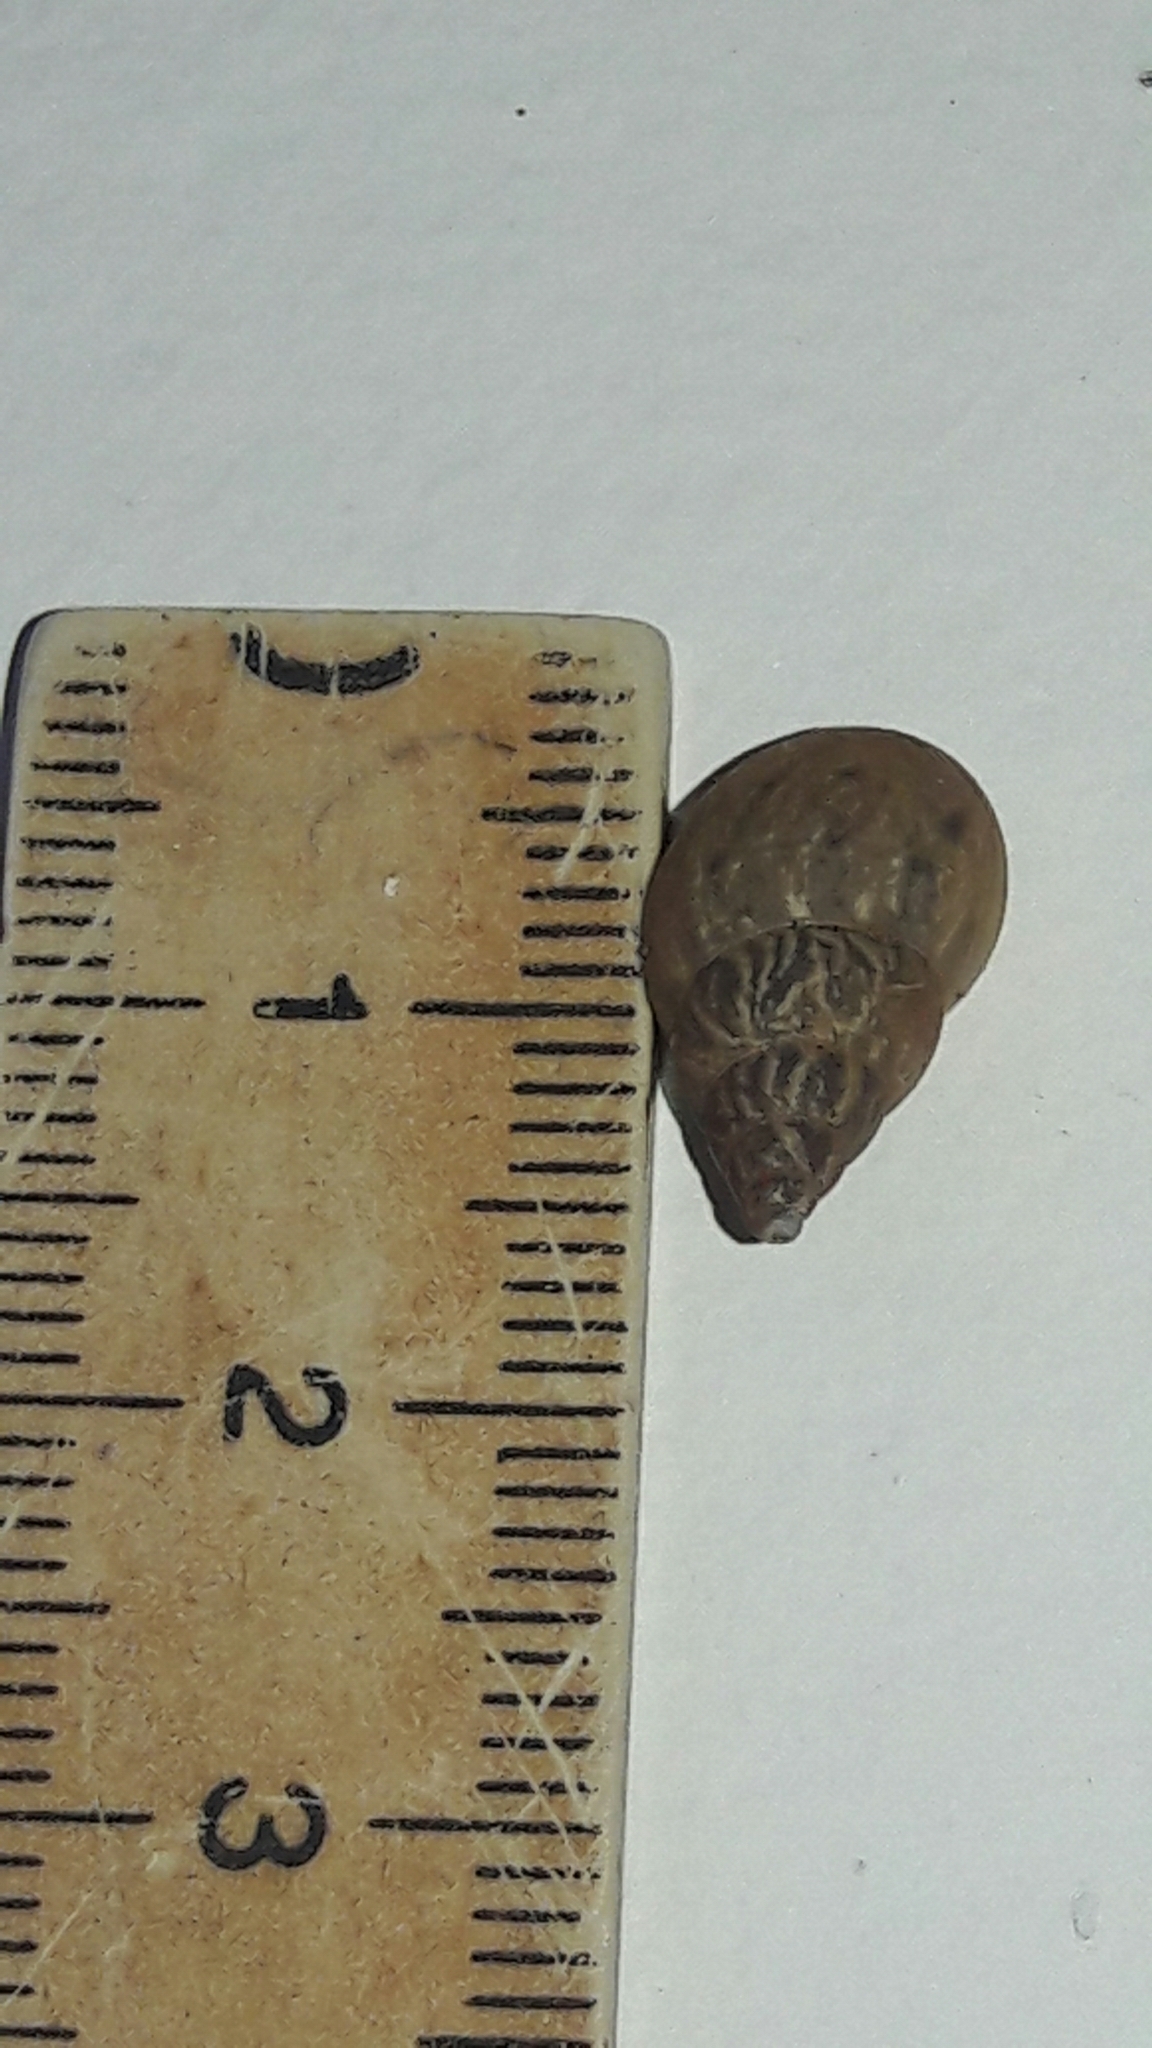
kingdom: Animalia
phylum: Mollusca
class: Gastropoda
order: Stylommatophora
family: Bulimulidae
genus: Bulimulus
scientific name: Bulimulus tenuissimus
